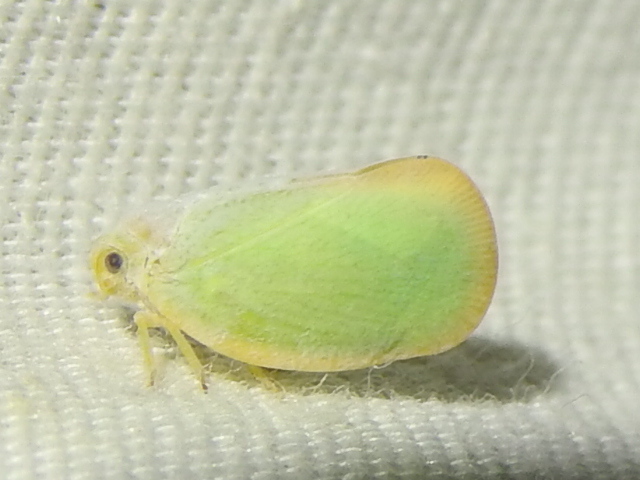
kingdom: Animalia
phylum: Arthropoda
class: Insecta
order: Hemiptera
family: Flatidae
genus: Ormenoides
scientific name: Ormenoides venusta
